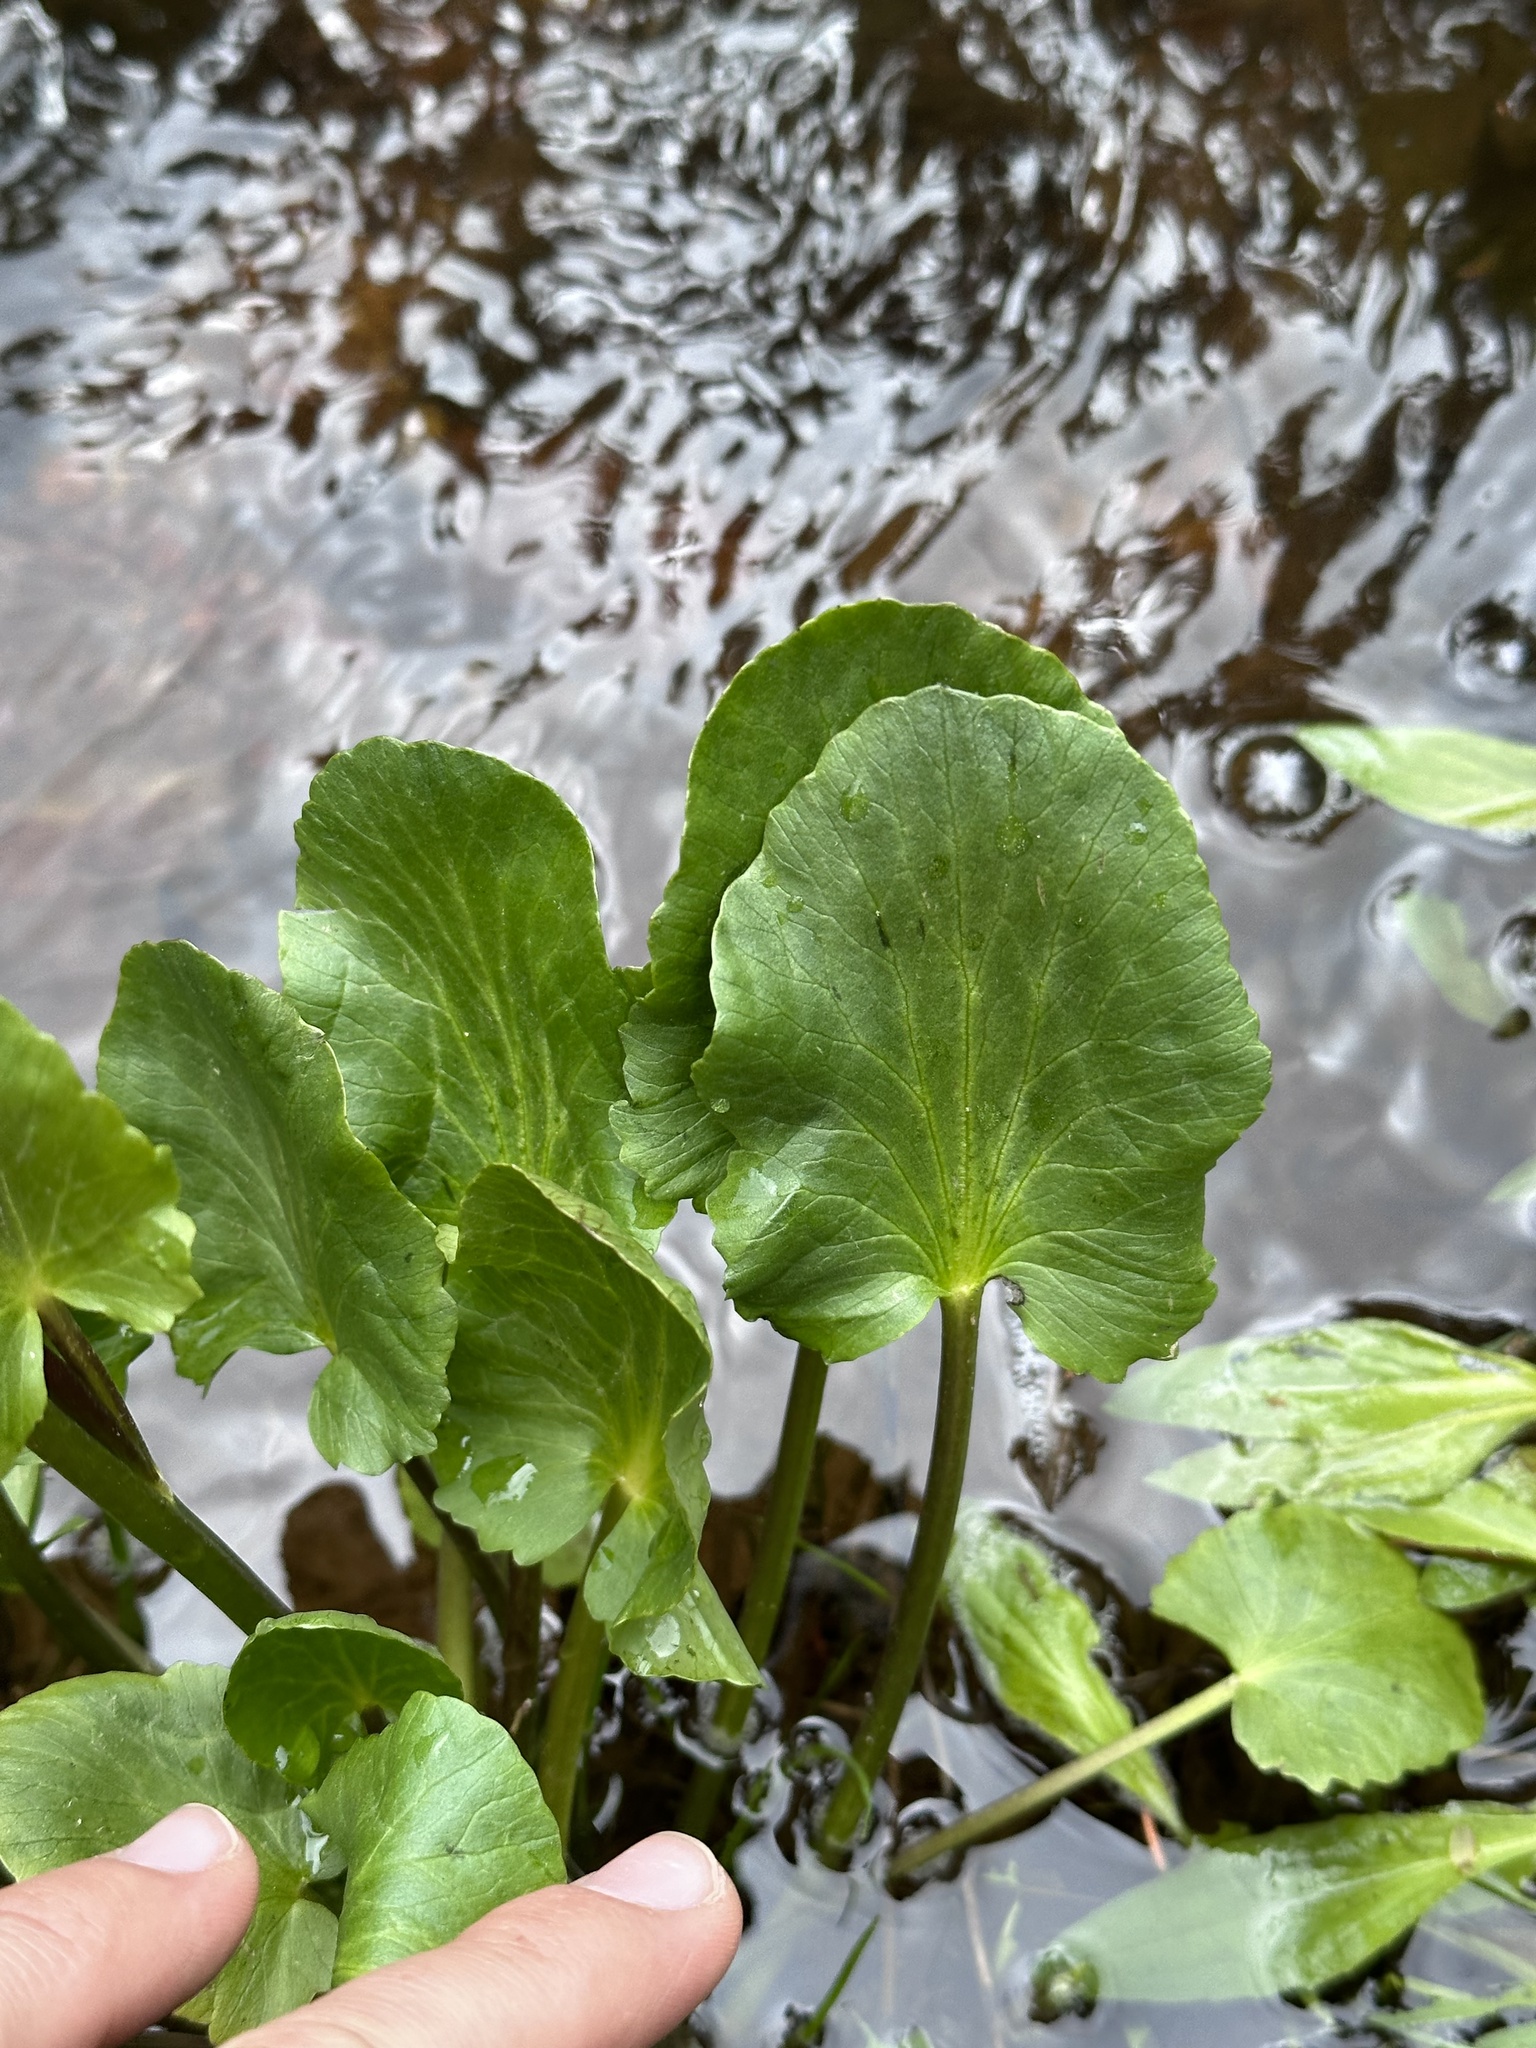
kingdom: Plantae
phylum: Tracheophyta
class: Magnoliopsida
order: Ranunculales
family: Ranunculaceae
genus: Caltha
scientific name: Caltha leptosepala
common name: Elkslip
